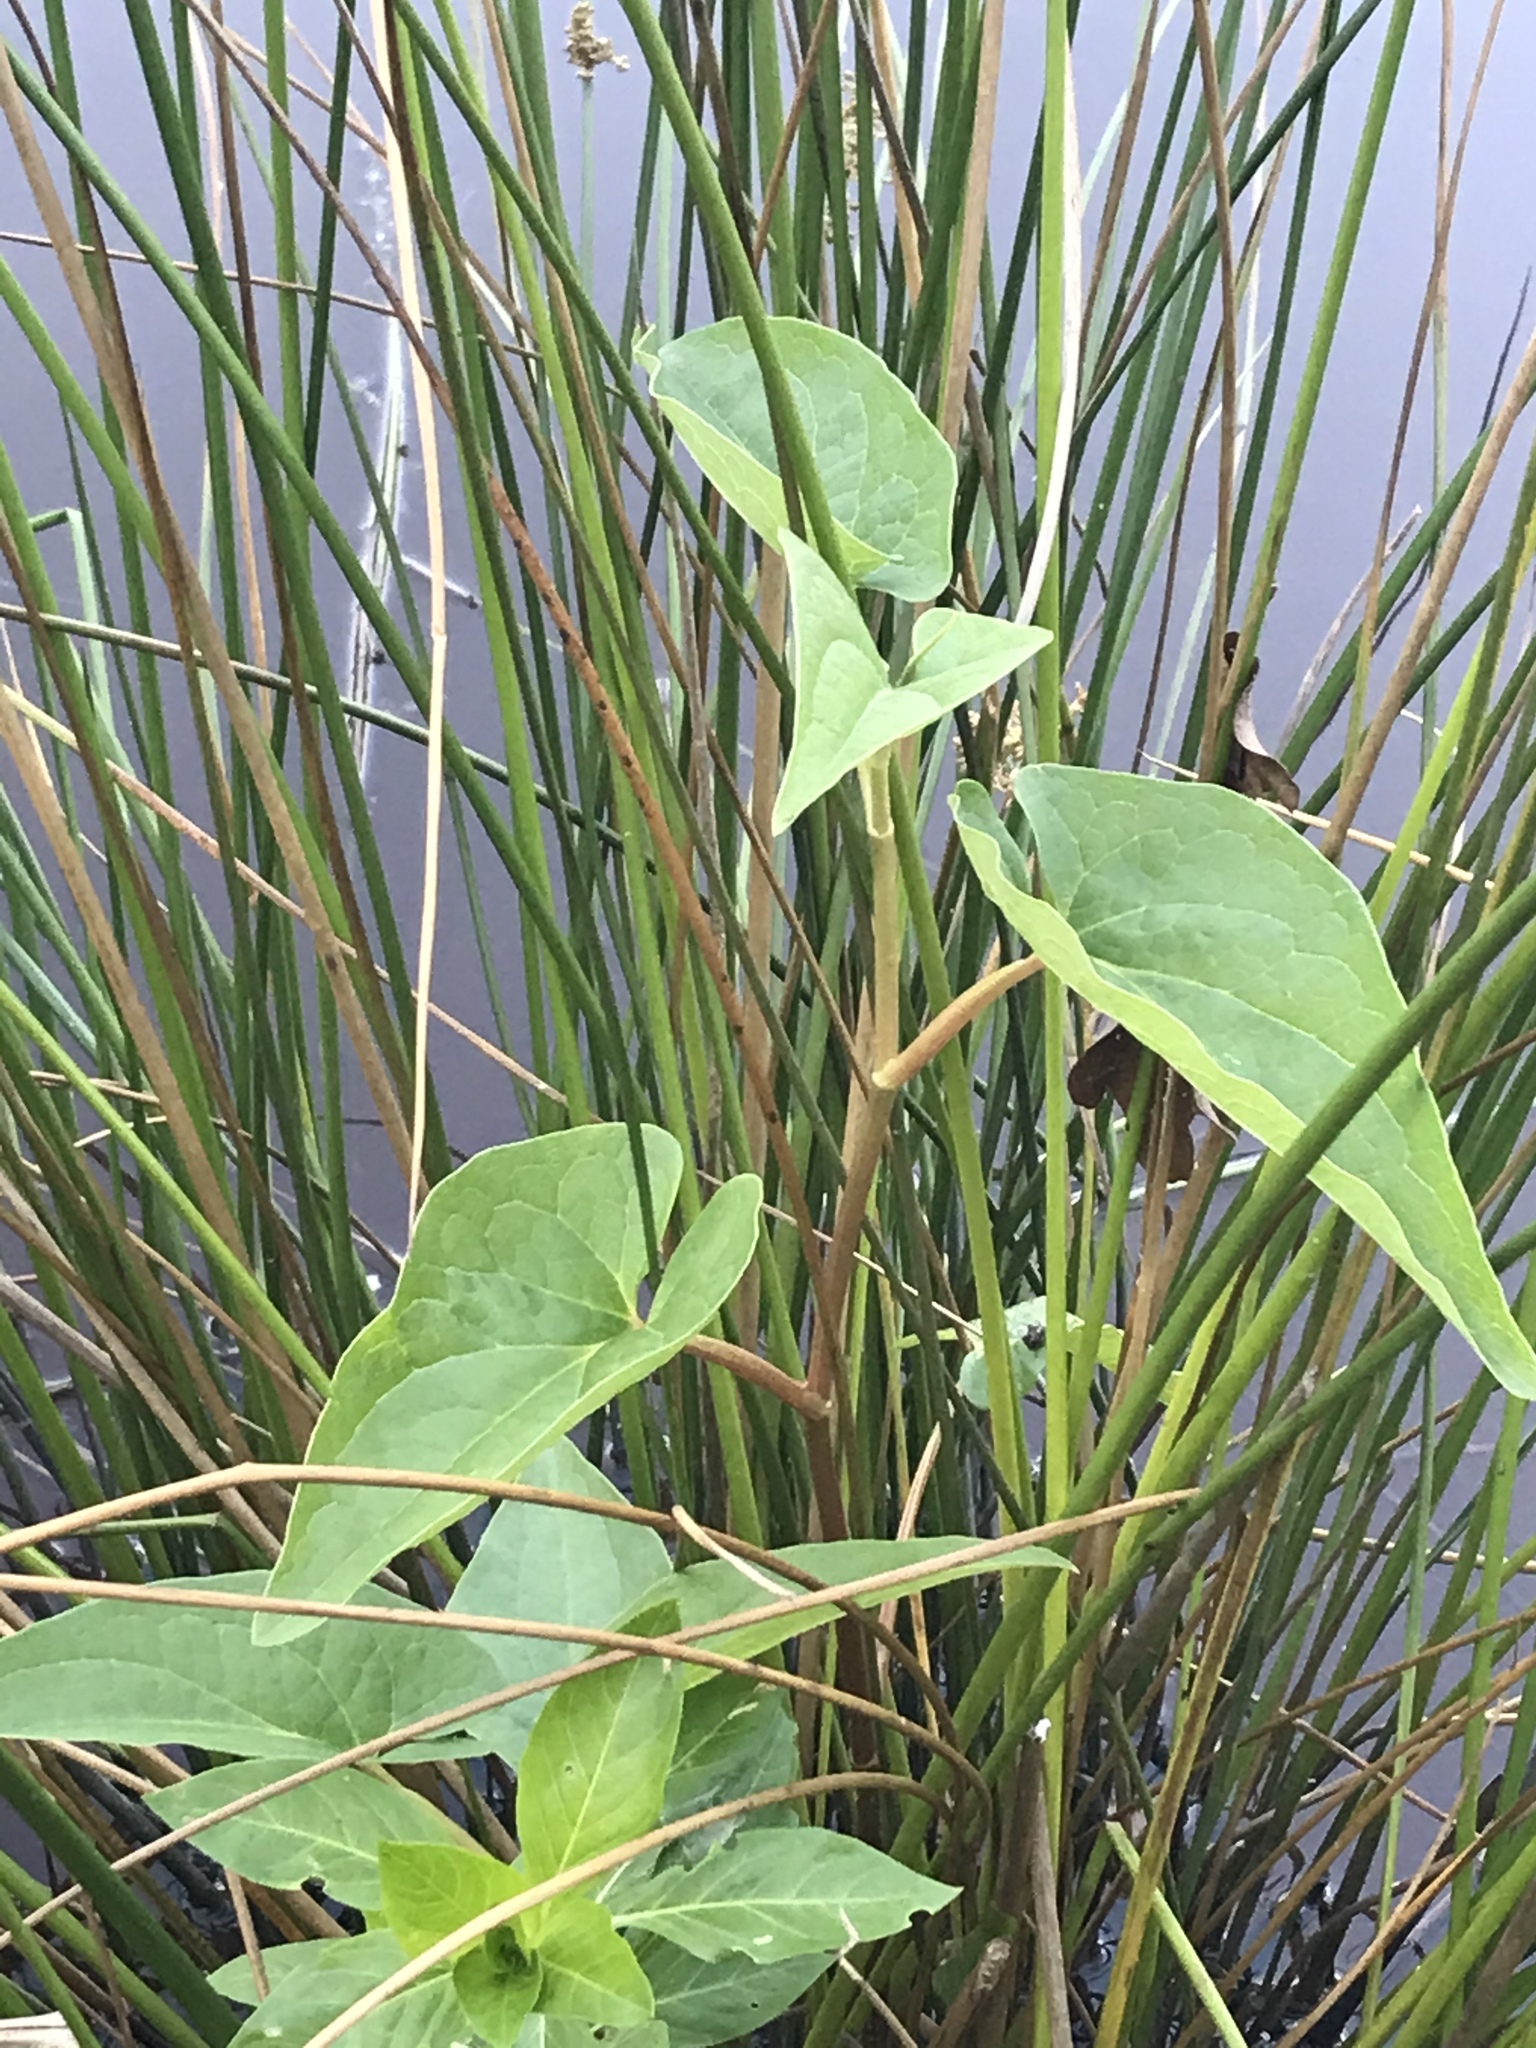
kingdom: Plantae
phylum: Tracheophyta
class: Magnoliopsida
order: Piperales
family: Saururaceae
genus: Saururus
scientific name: Saururus cernuus
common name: Lizard's-tail
